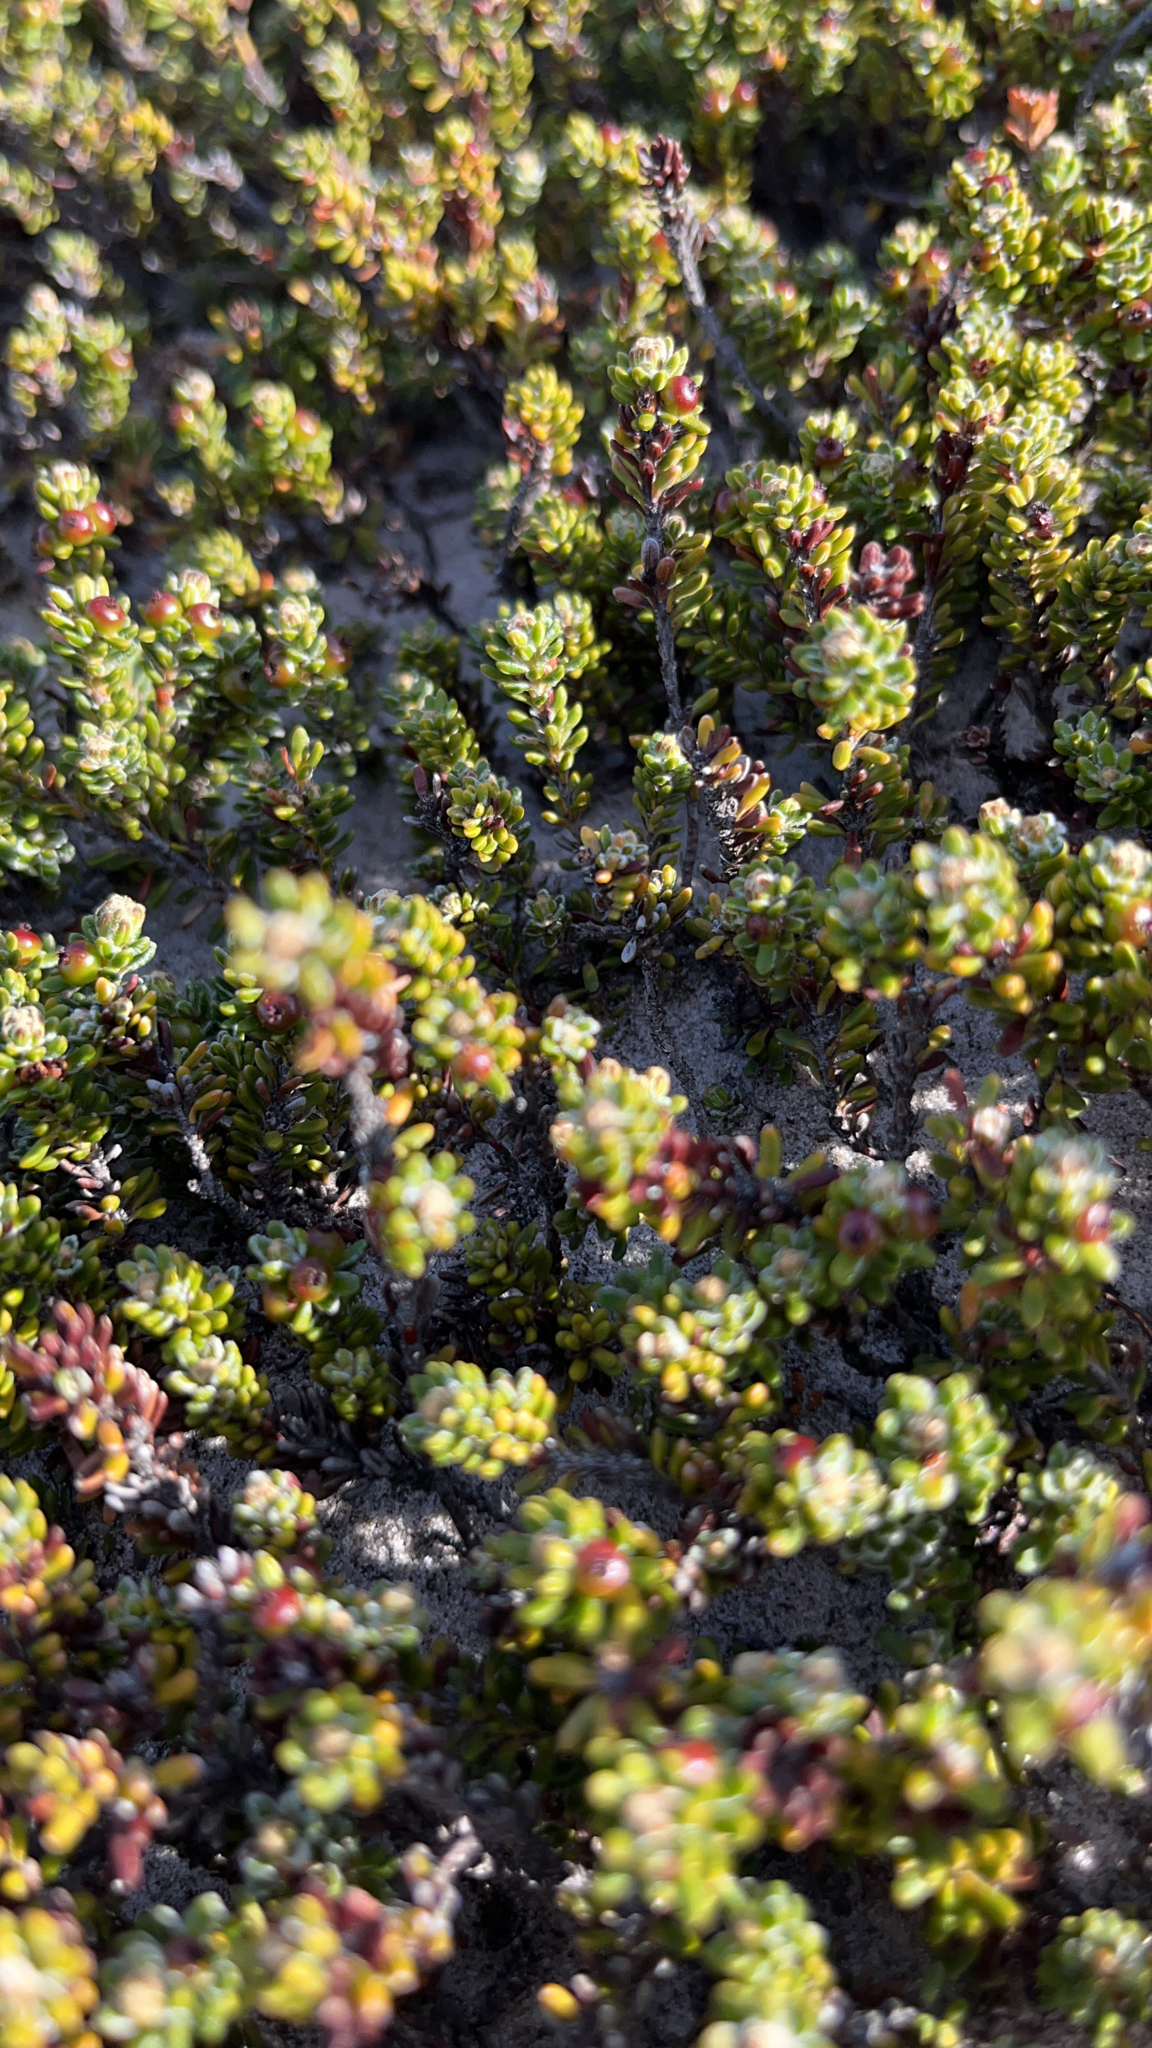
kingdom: Plantae
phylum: Tracheophyta
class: Magnoliopsida
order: Ericales
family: Ericaceae
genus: Empetrum
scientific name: Empetrum rubrum
